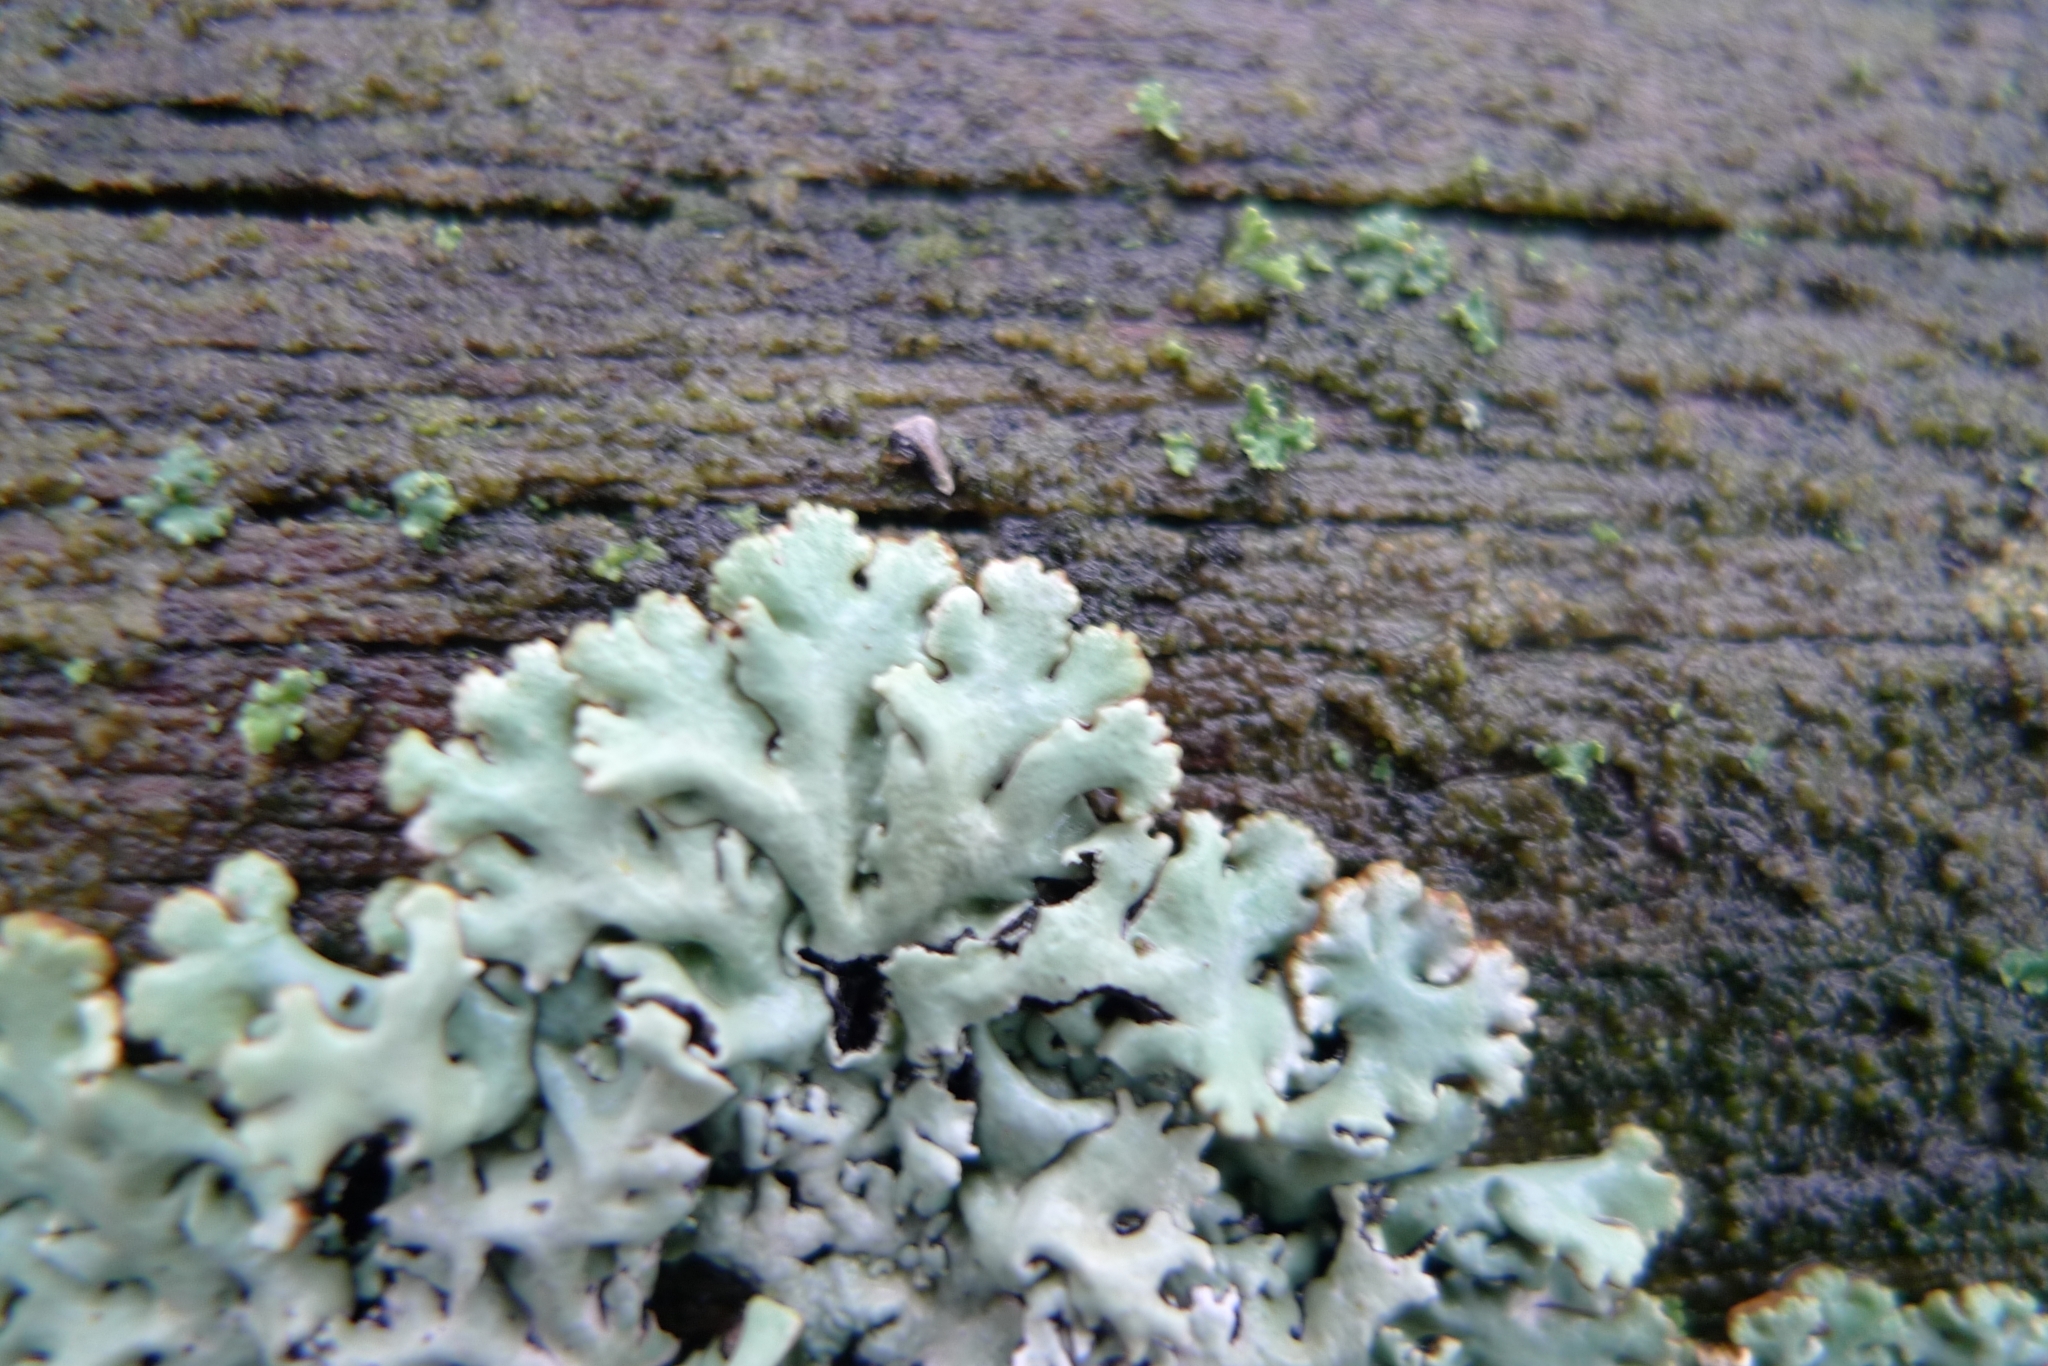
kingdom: Fungi
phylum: Ascomycota
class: Lecanoromycetes
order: Lecanorales
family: Parmeliaceae
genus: Hypogymnia
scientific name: Hypogymnia physodes
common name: Dark crottle
